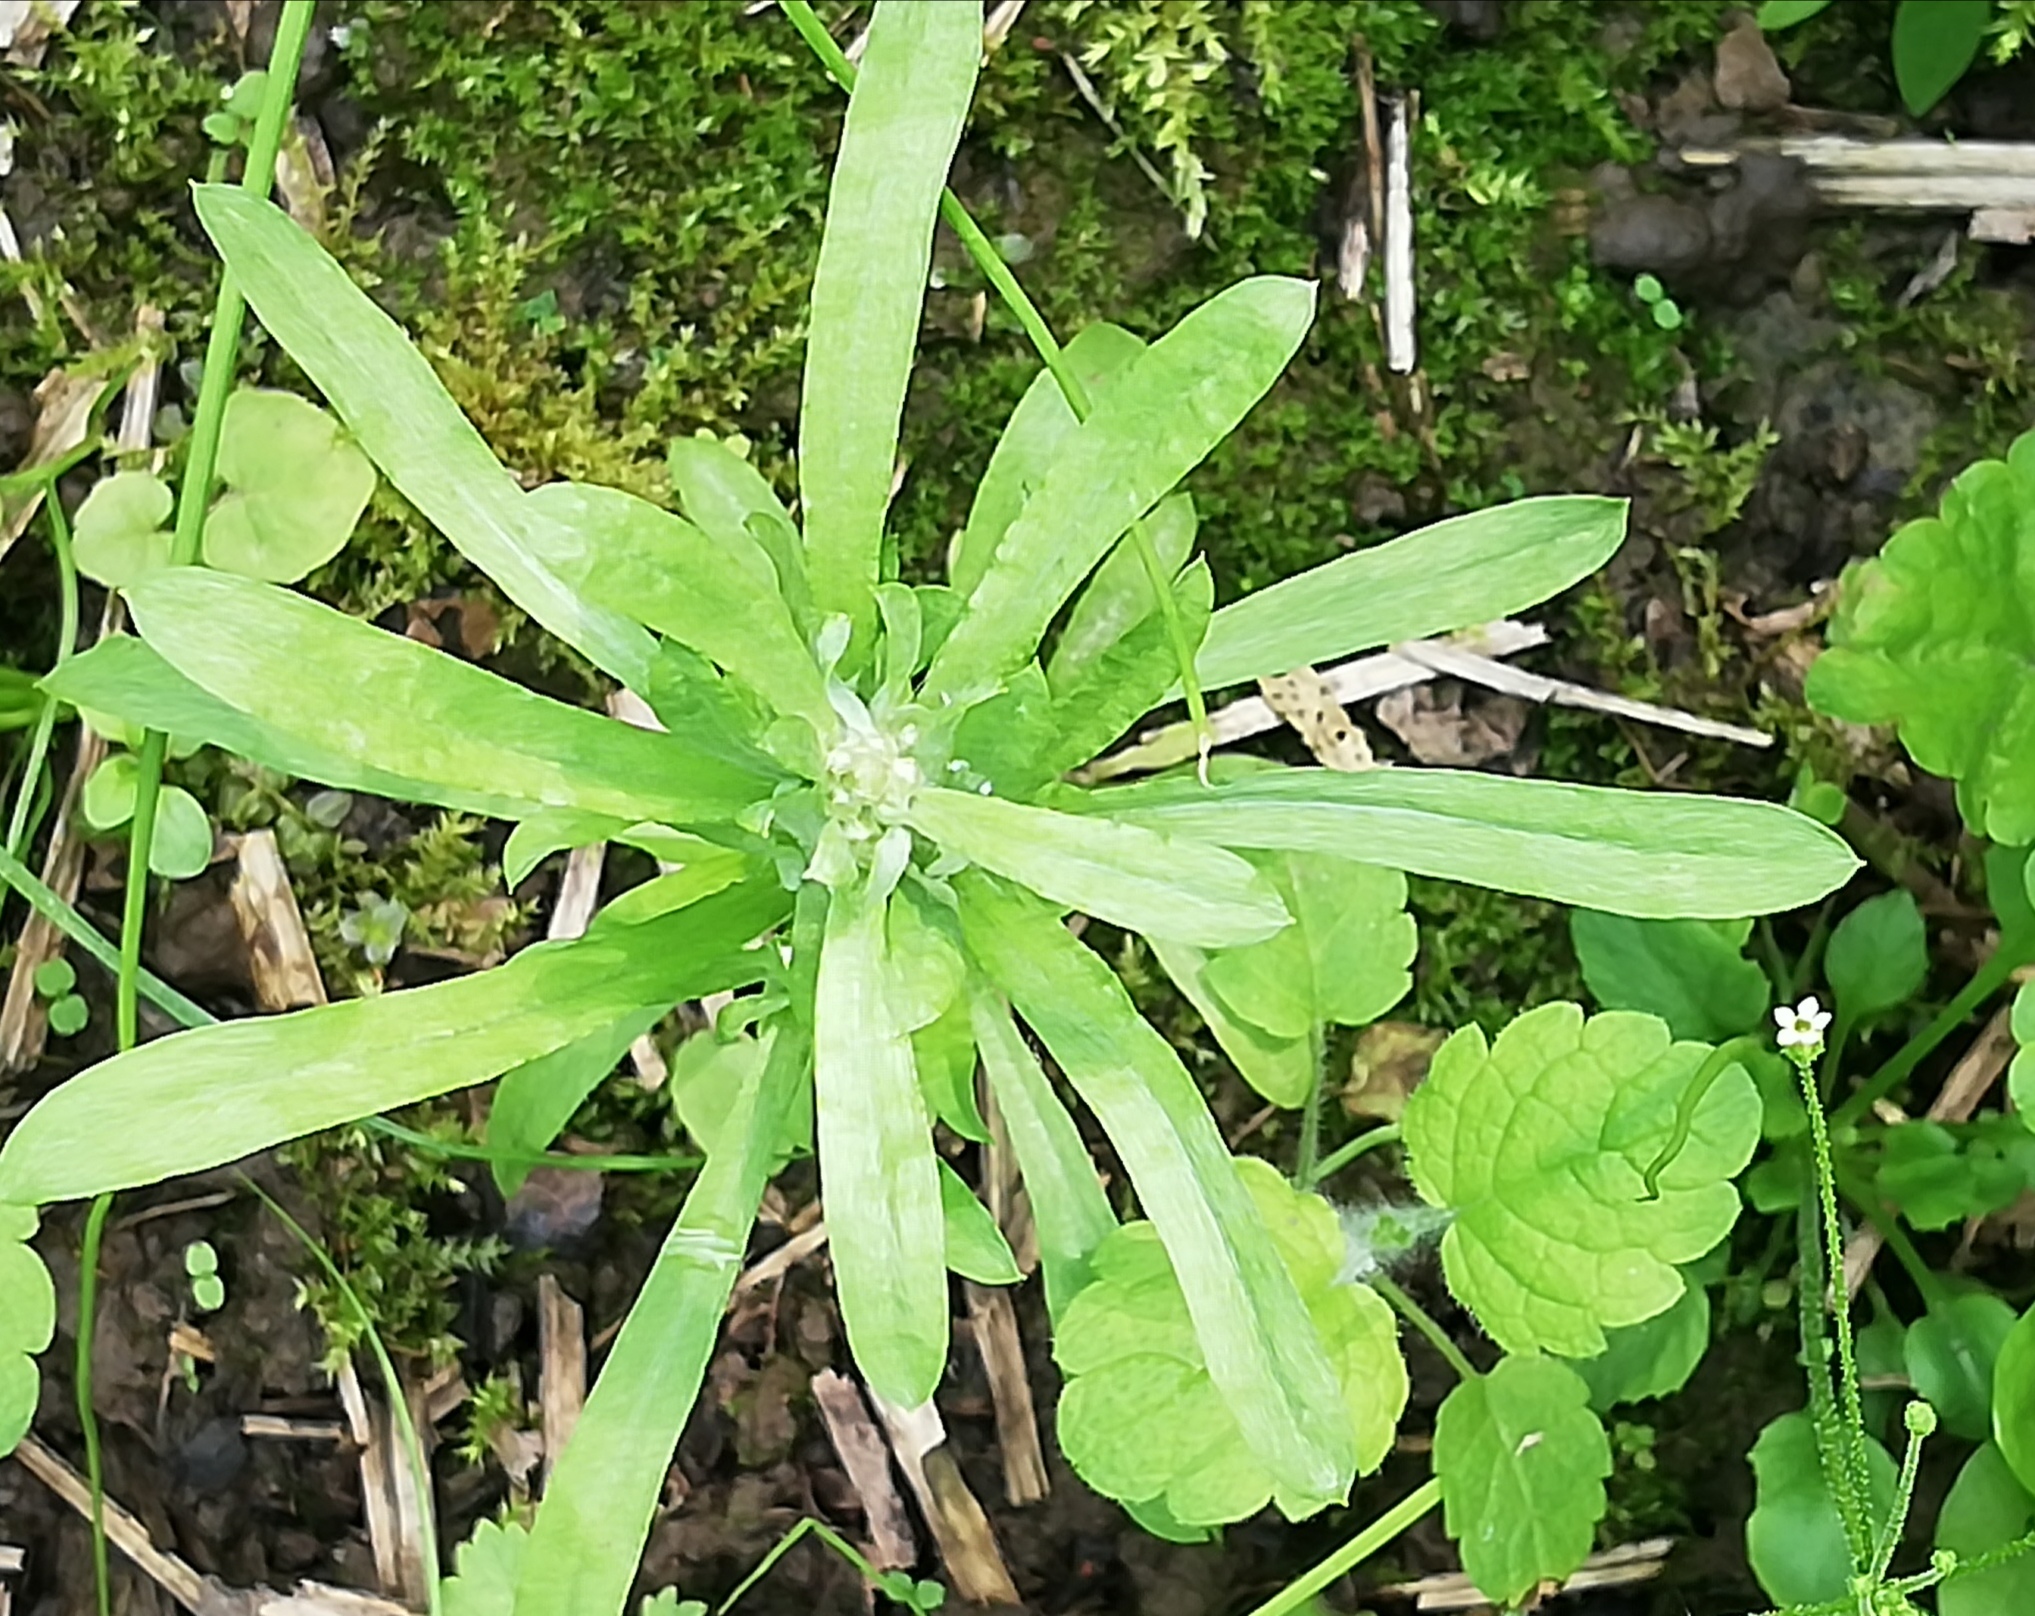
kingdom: Plantae
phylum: Tracheophyta
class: Magnoliopsida
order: Asterales
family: Asteraceae
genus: Gnaphalium
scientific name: Gnaphalium uliginosum
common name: Marsh cudweed
